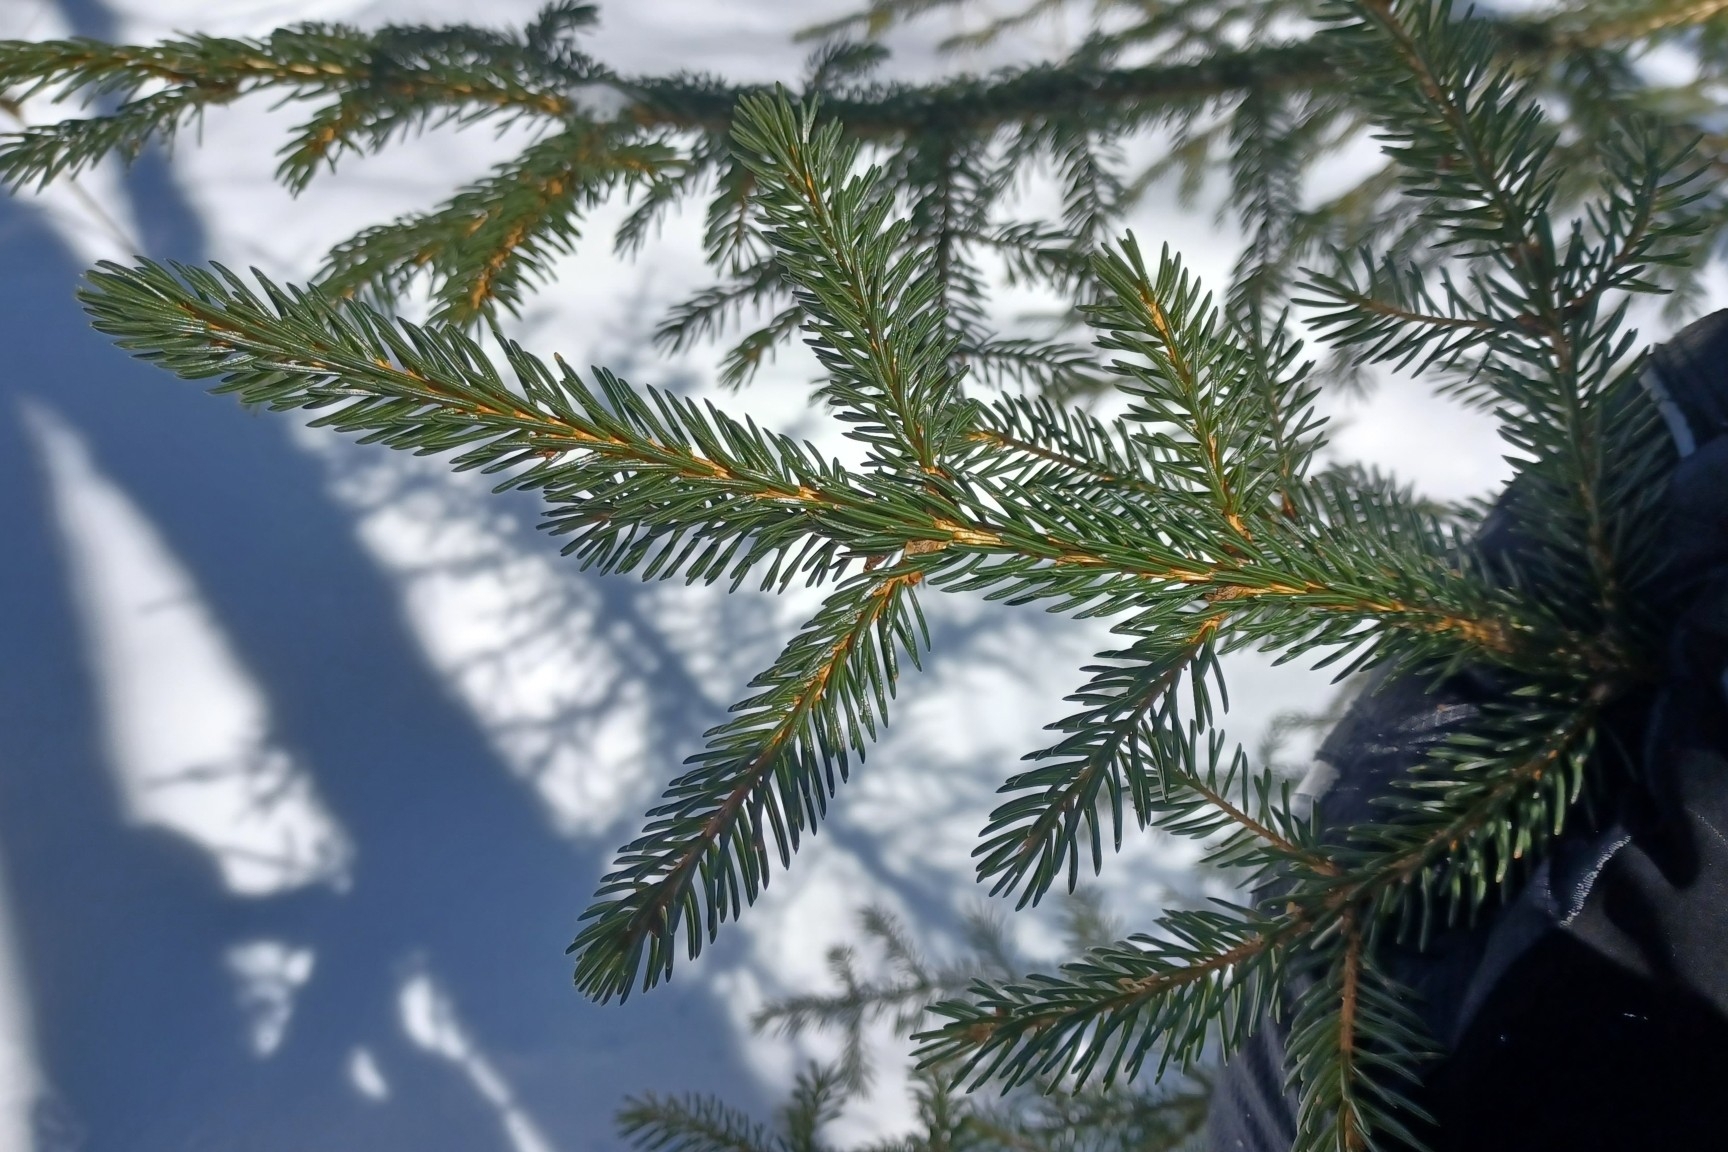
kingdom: Plantae
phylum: Tracheophyta
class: Pinopsida
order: Pinales
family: Pinaceae
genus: Picea
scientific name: Picea rubens
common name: Red spruce
